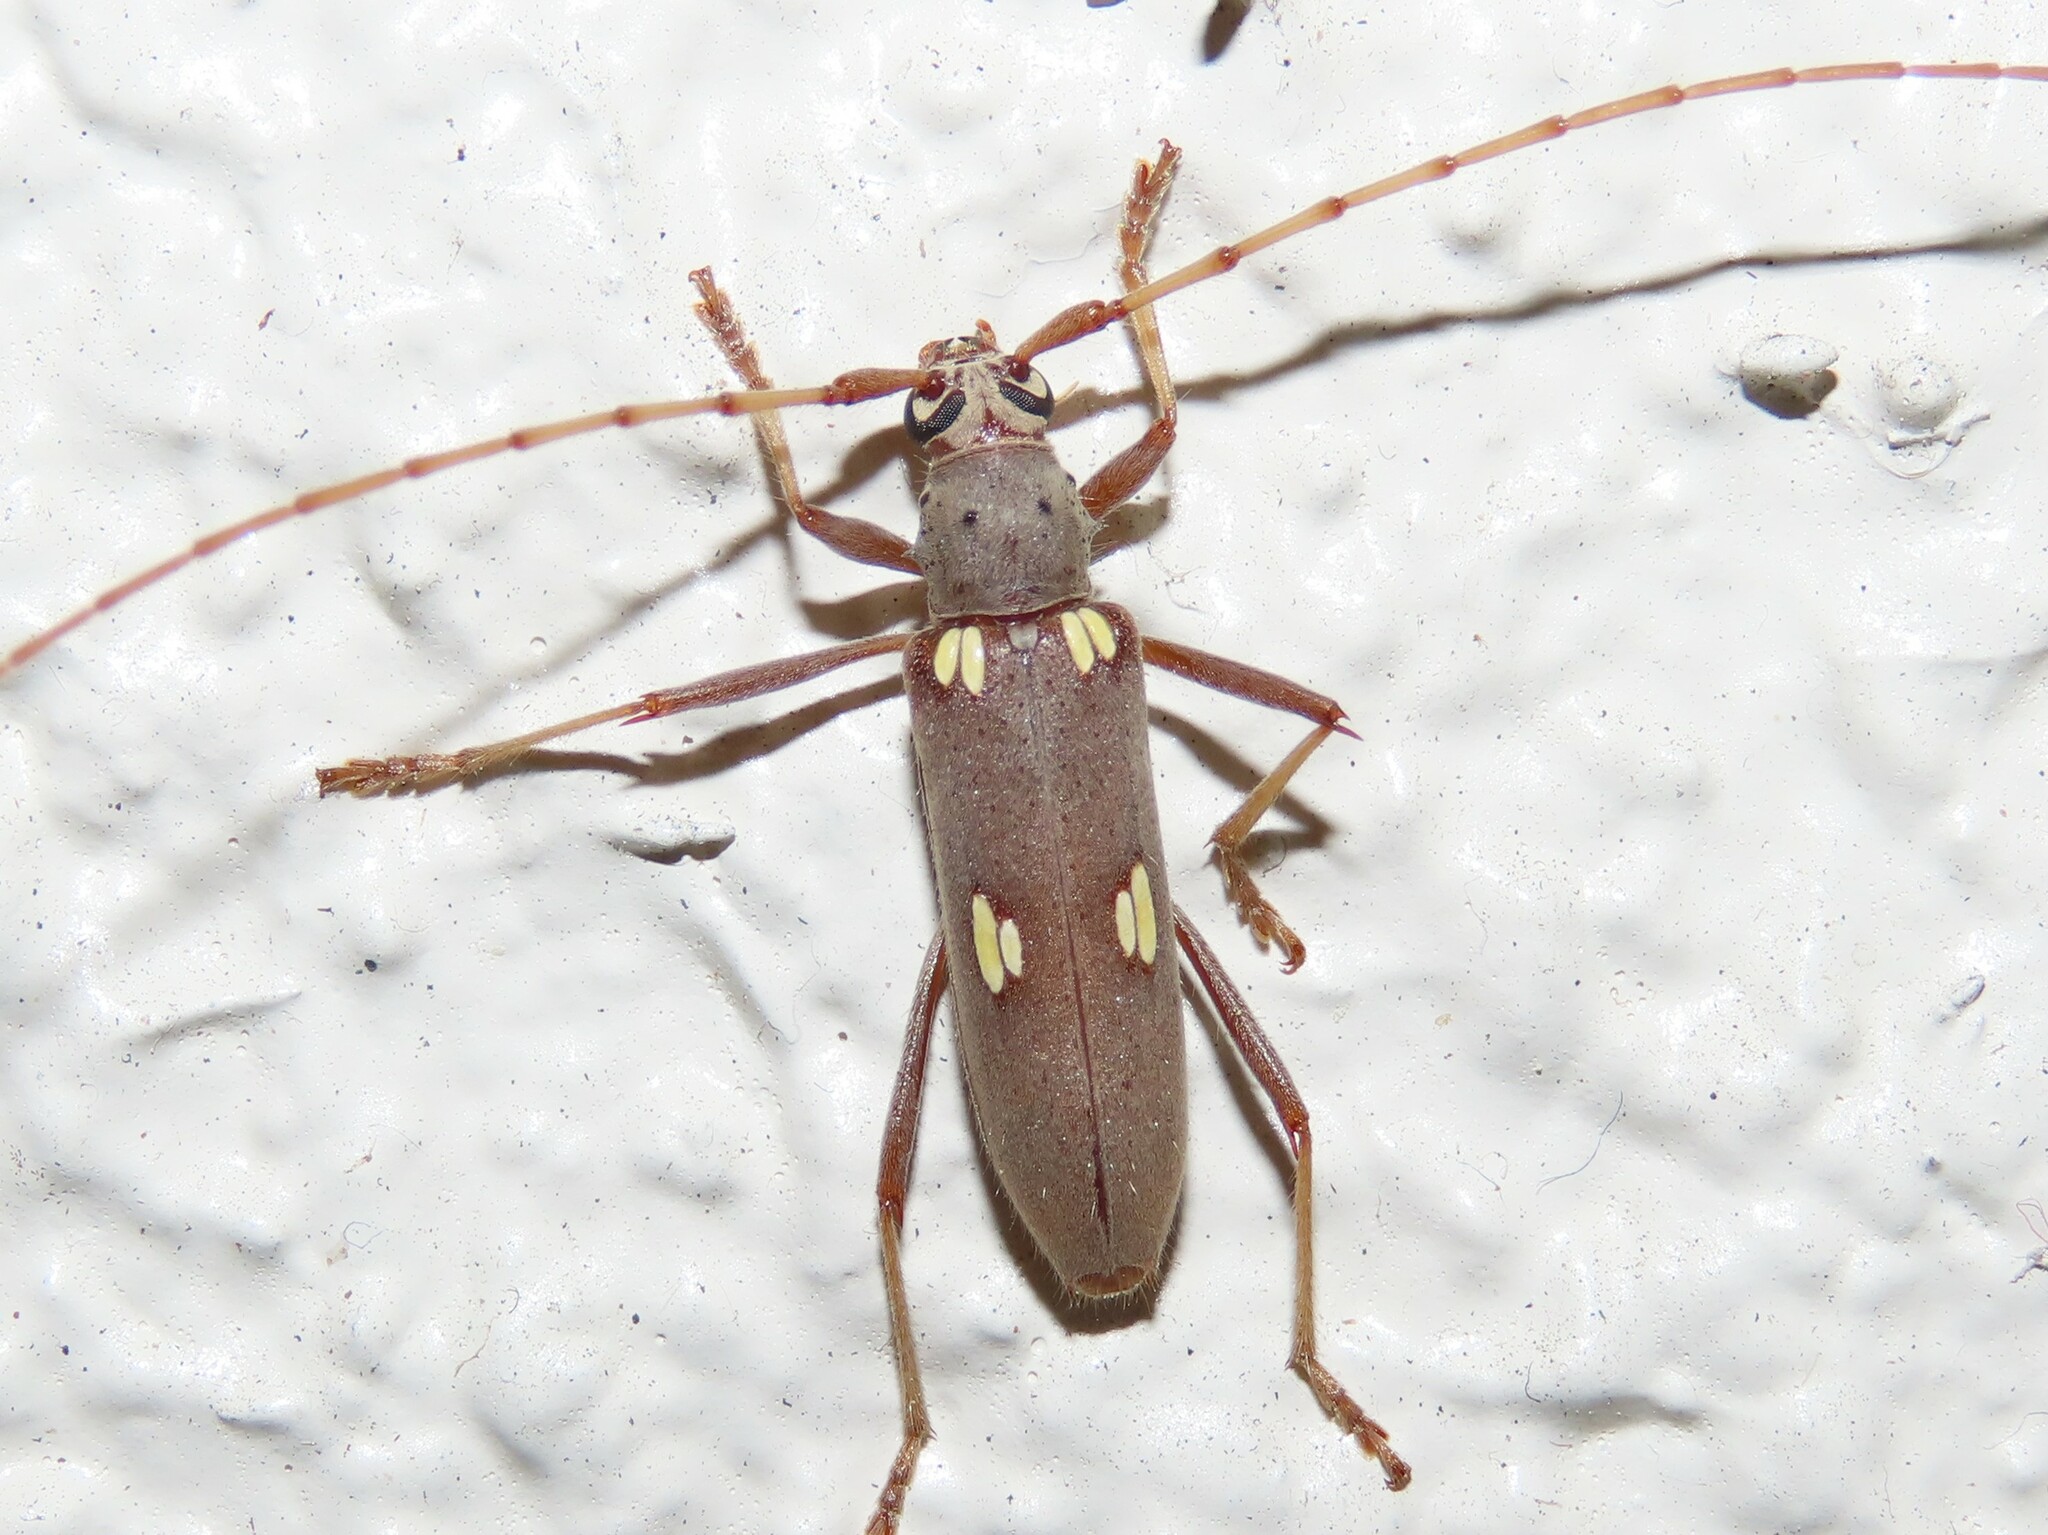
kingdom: Animalia
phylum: Arthropoda
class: Insecta
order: Coleoptera
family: Cerambycidae
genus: Eburia
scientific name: Eburia distincta
